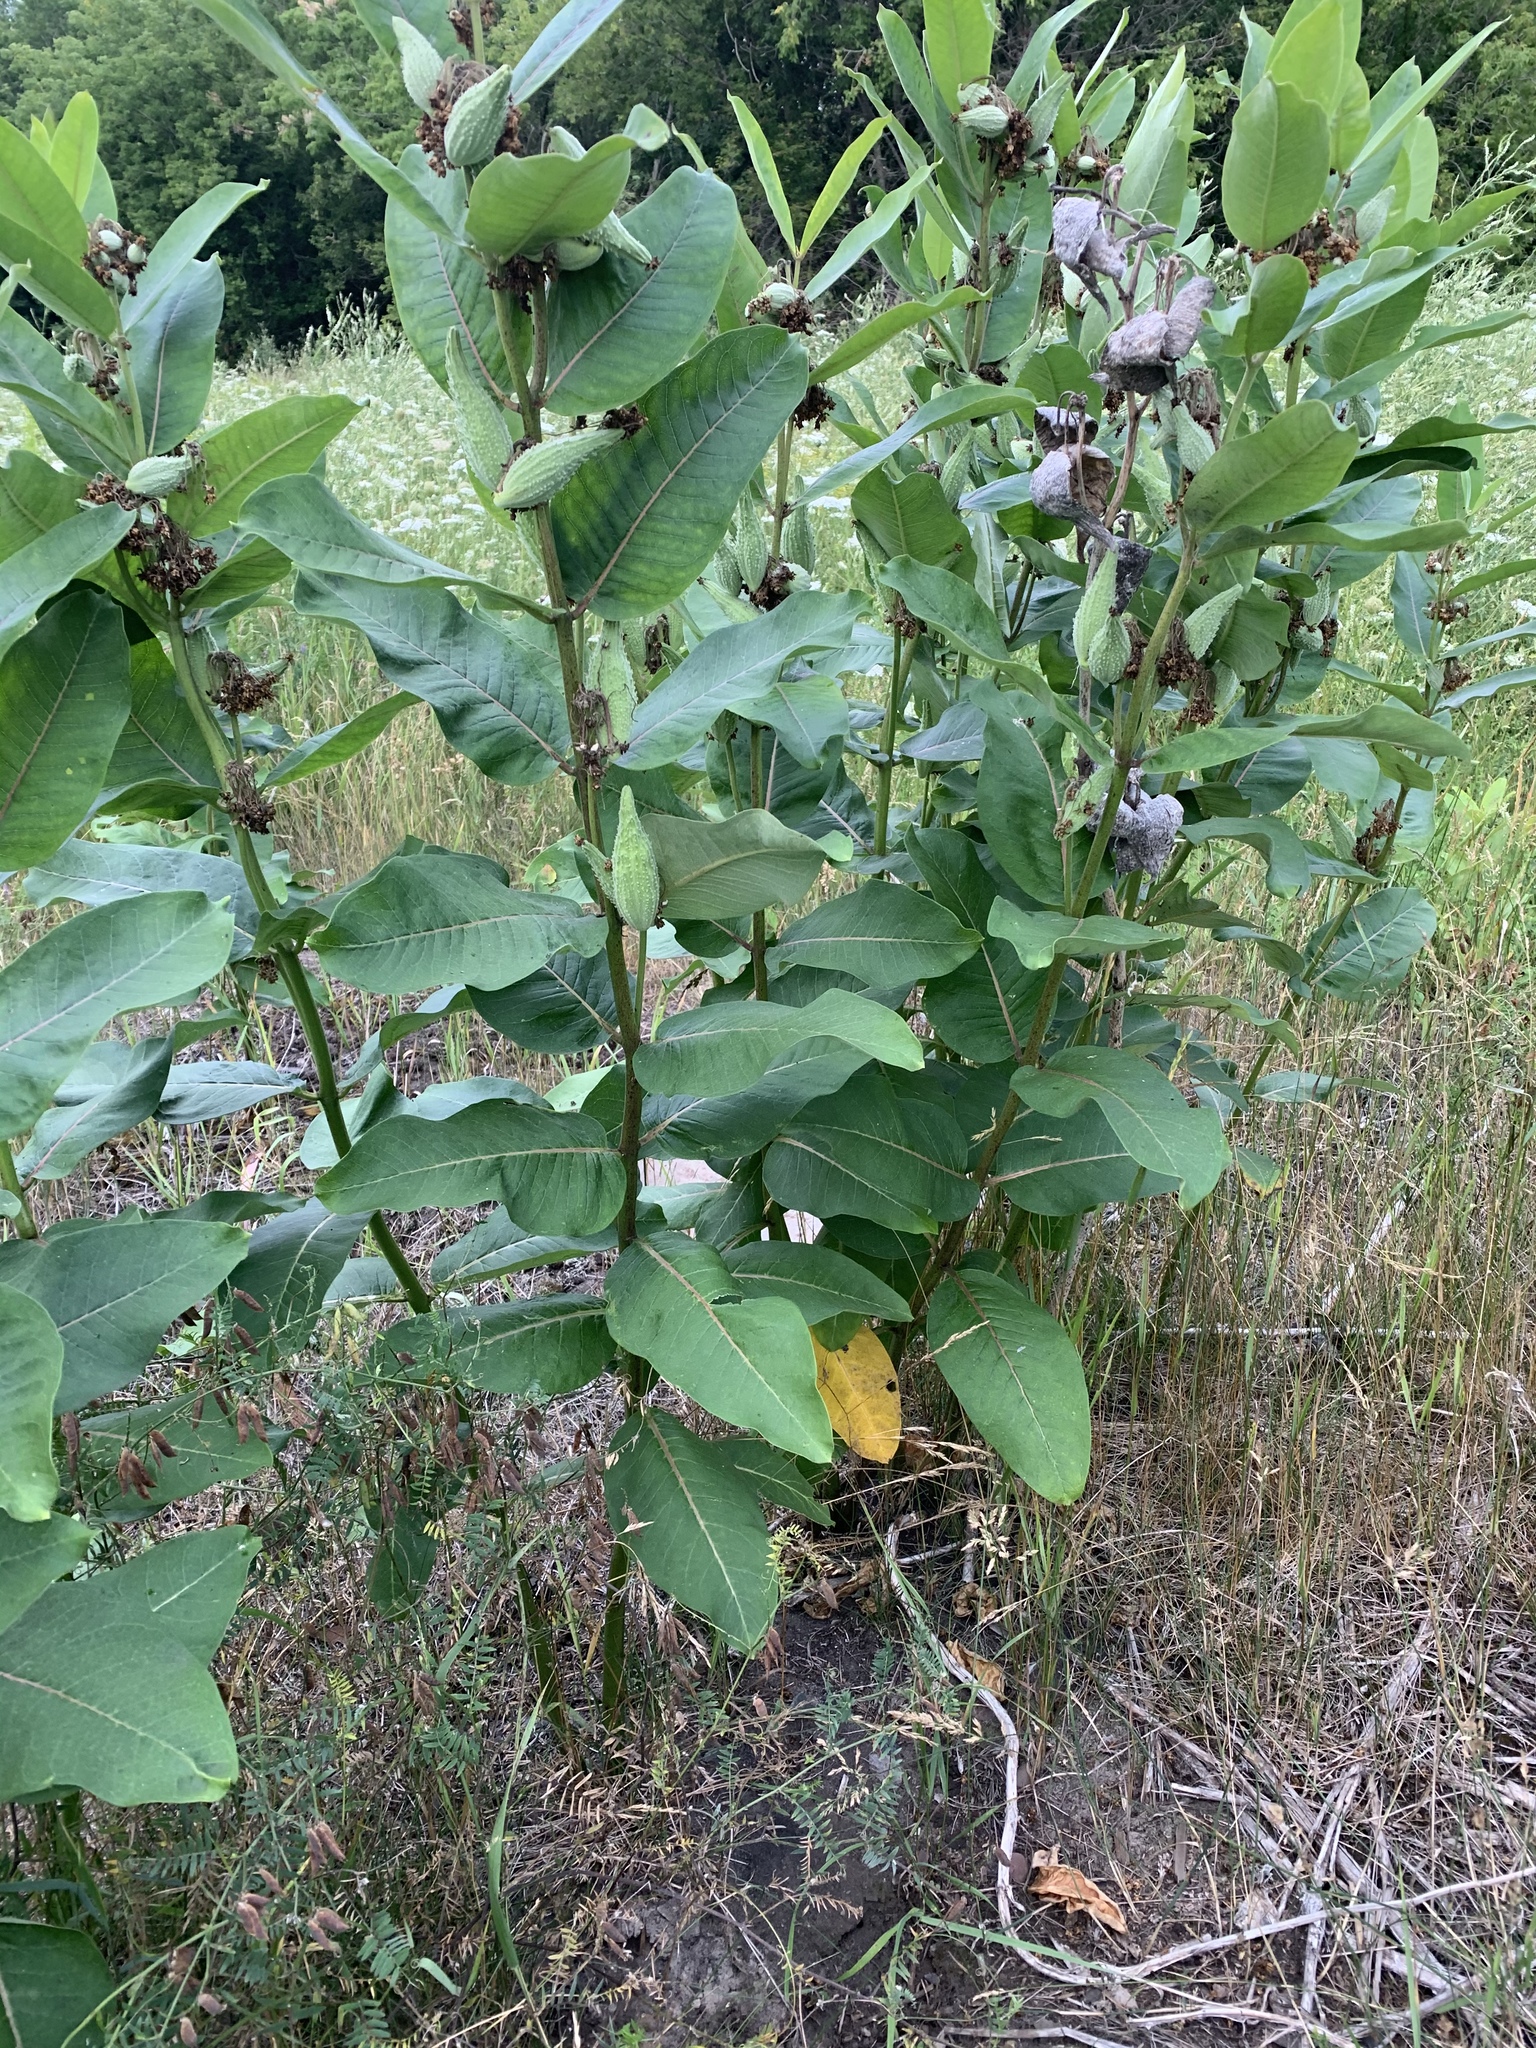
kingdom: Plantae
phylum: Tracheophyta
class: Magnoliopsida
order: Gentianales
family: Apocynaceae
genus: Asclepias
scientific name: Asclepias syriaca
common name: Common milkweed
